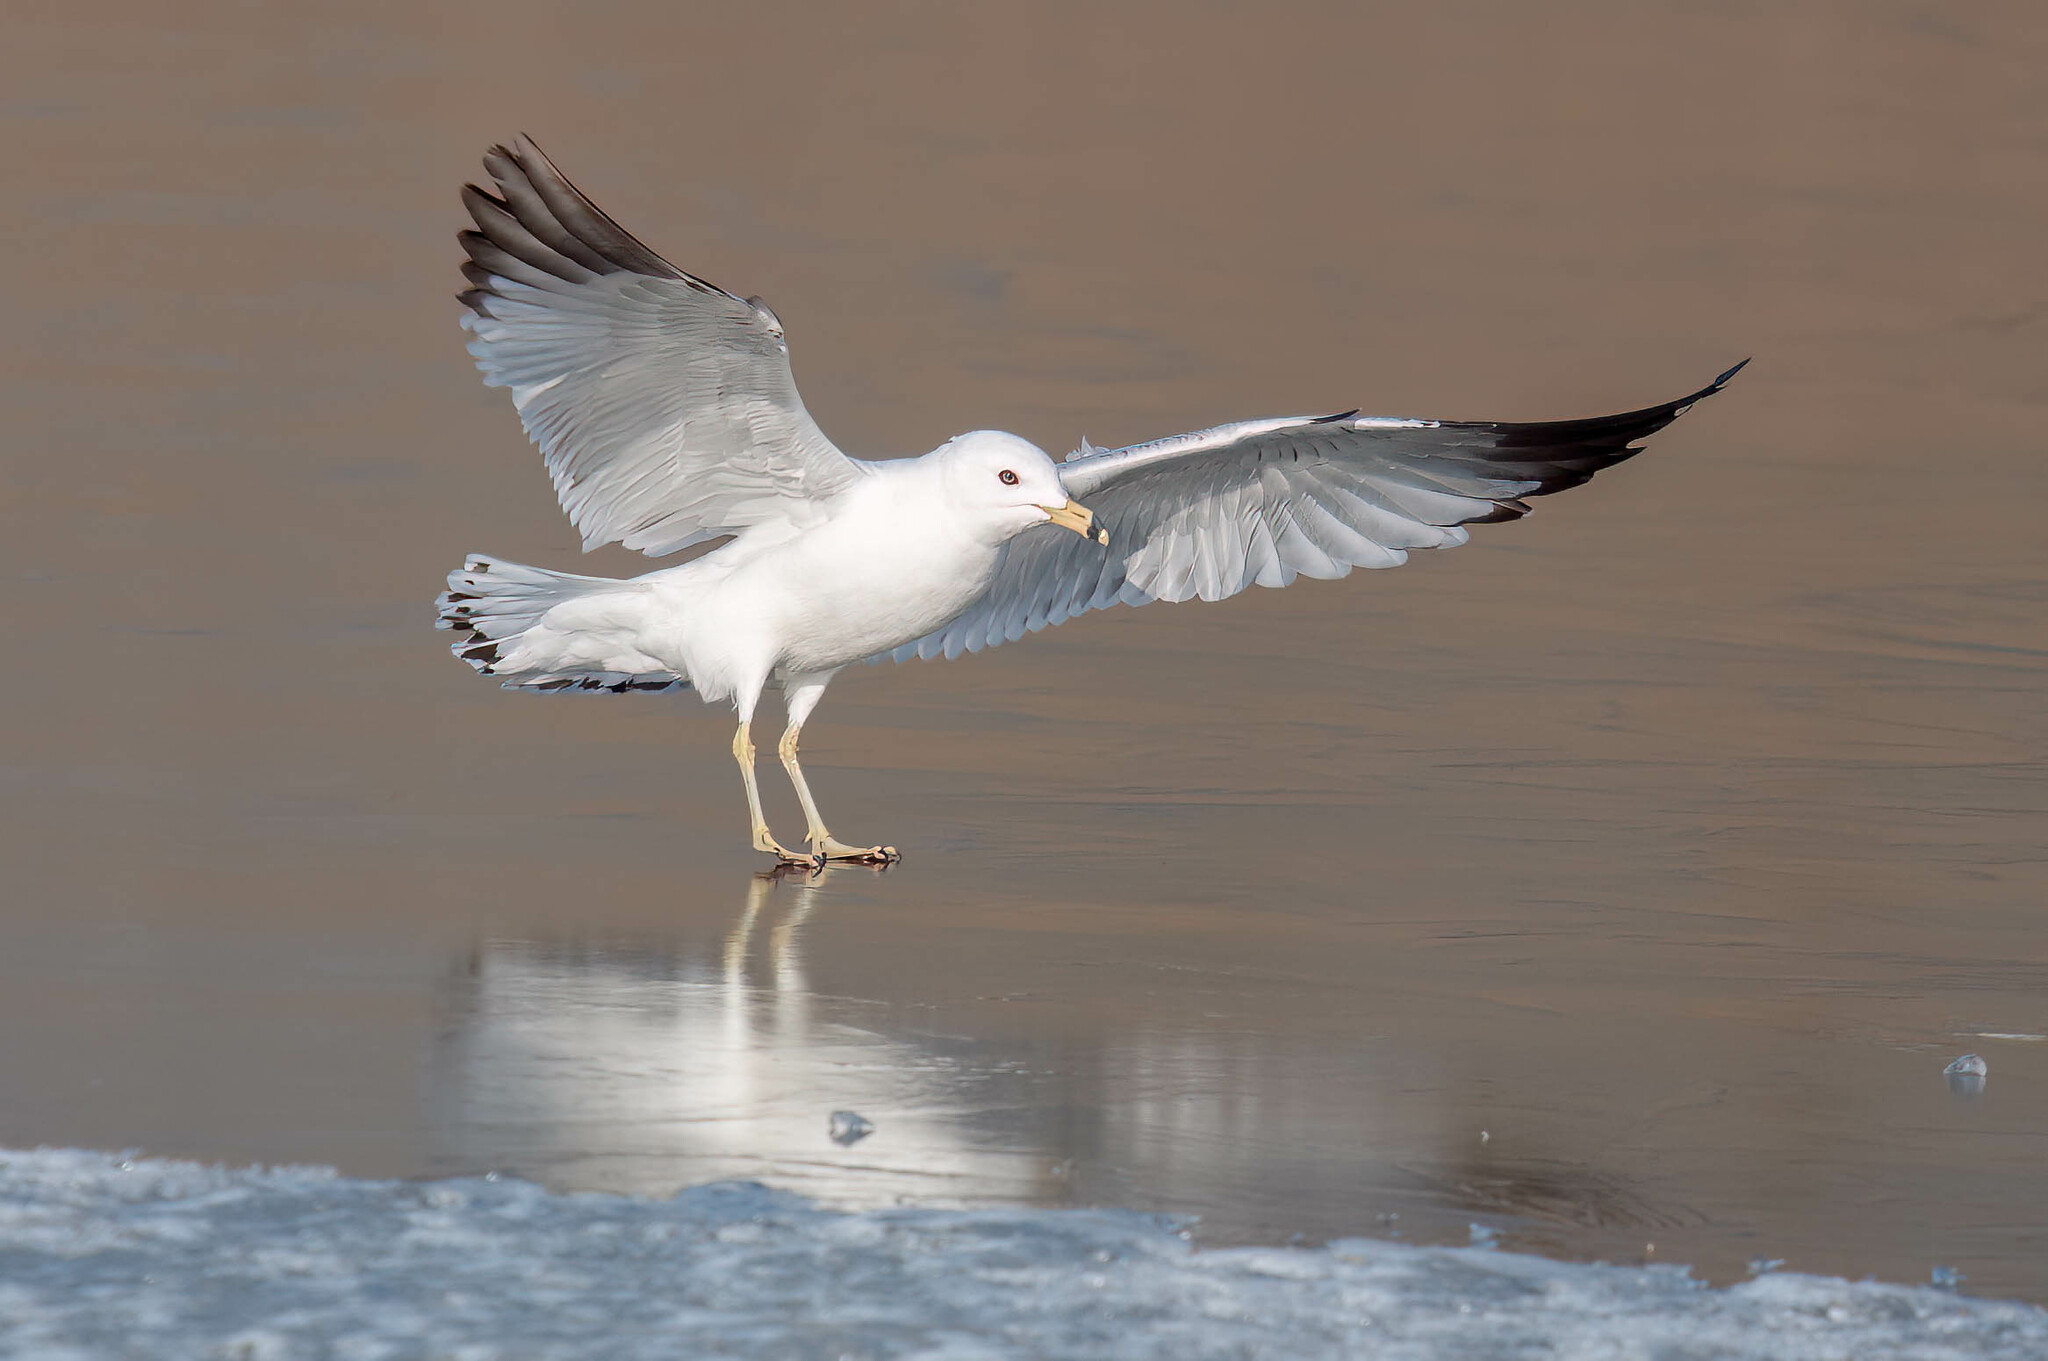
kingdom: Animalia
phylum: Chordata
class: Aves
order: Charadriiformes
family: Laridae
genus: Larus
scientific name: Larus delawarensis
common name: Ring-billed gull
